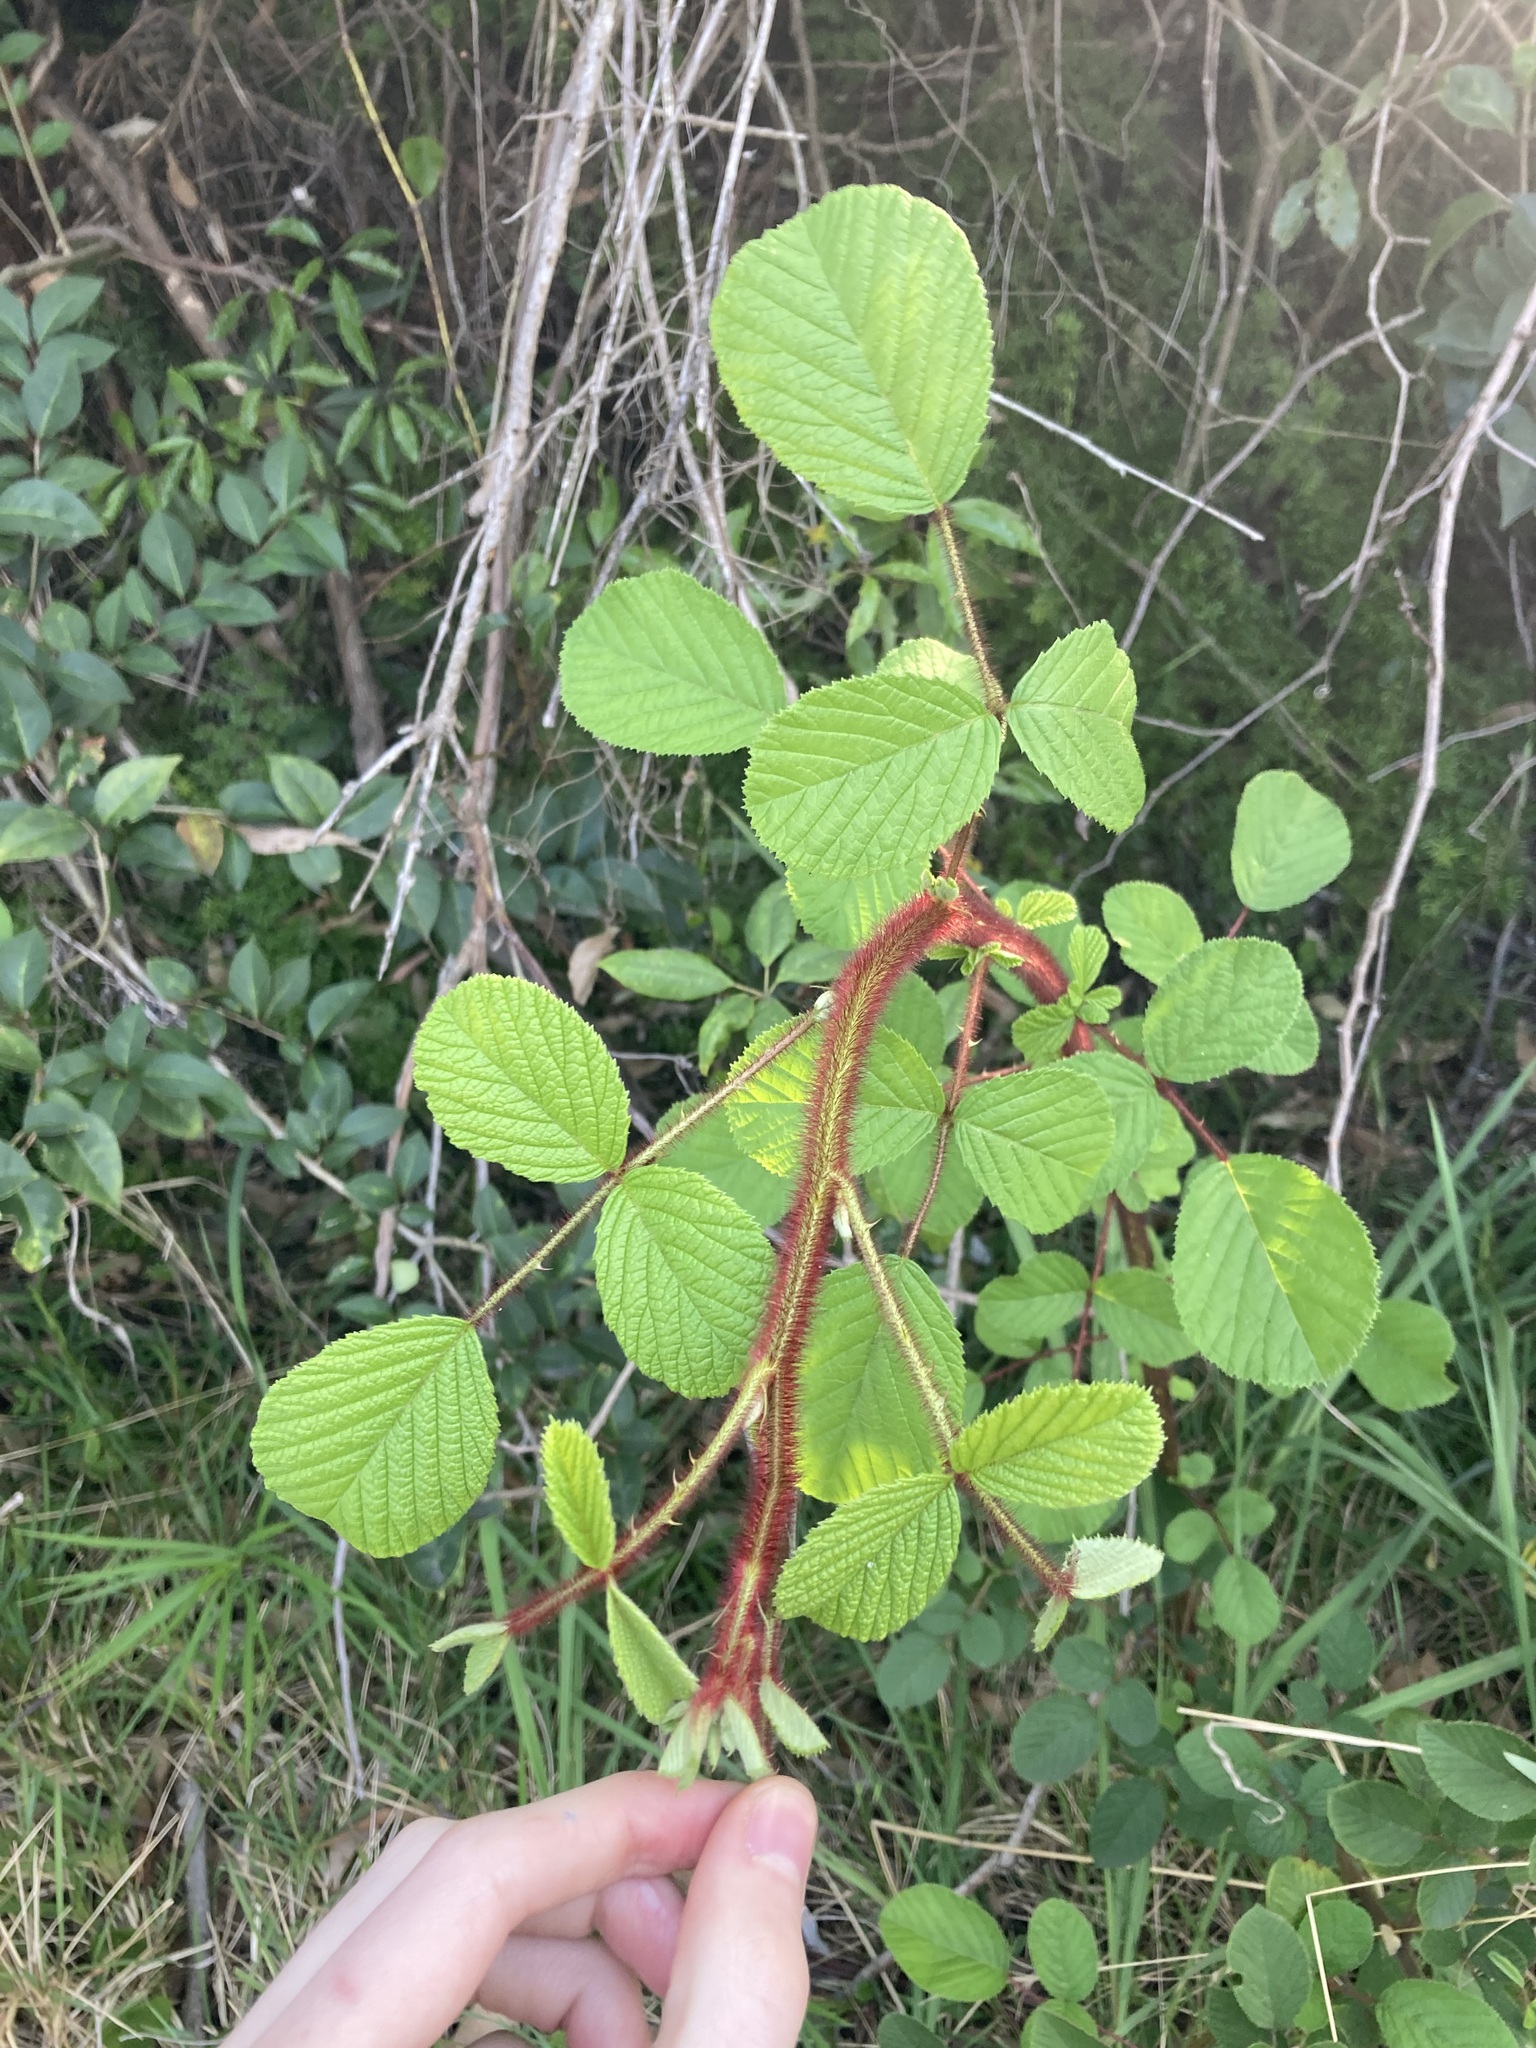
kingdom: Plantae
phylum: Tracheophyta
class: Magnoliopsida
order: Rosales
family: Rosaceae
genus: Rubus
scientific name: Rubus ellipticus
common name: Cheeseberry
